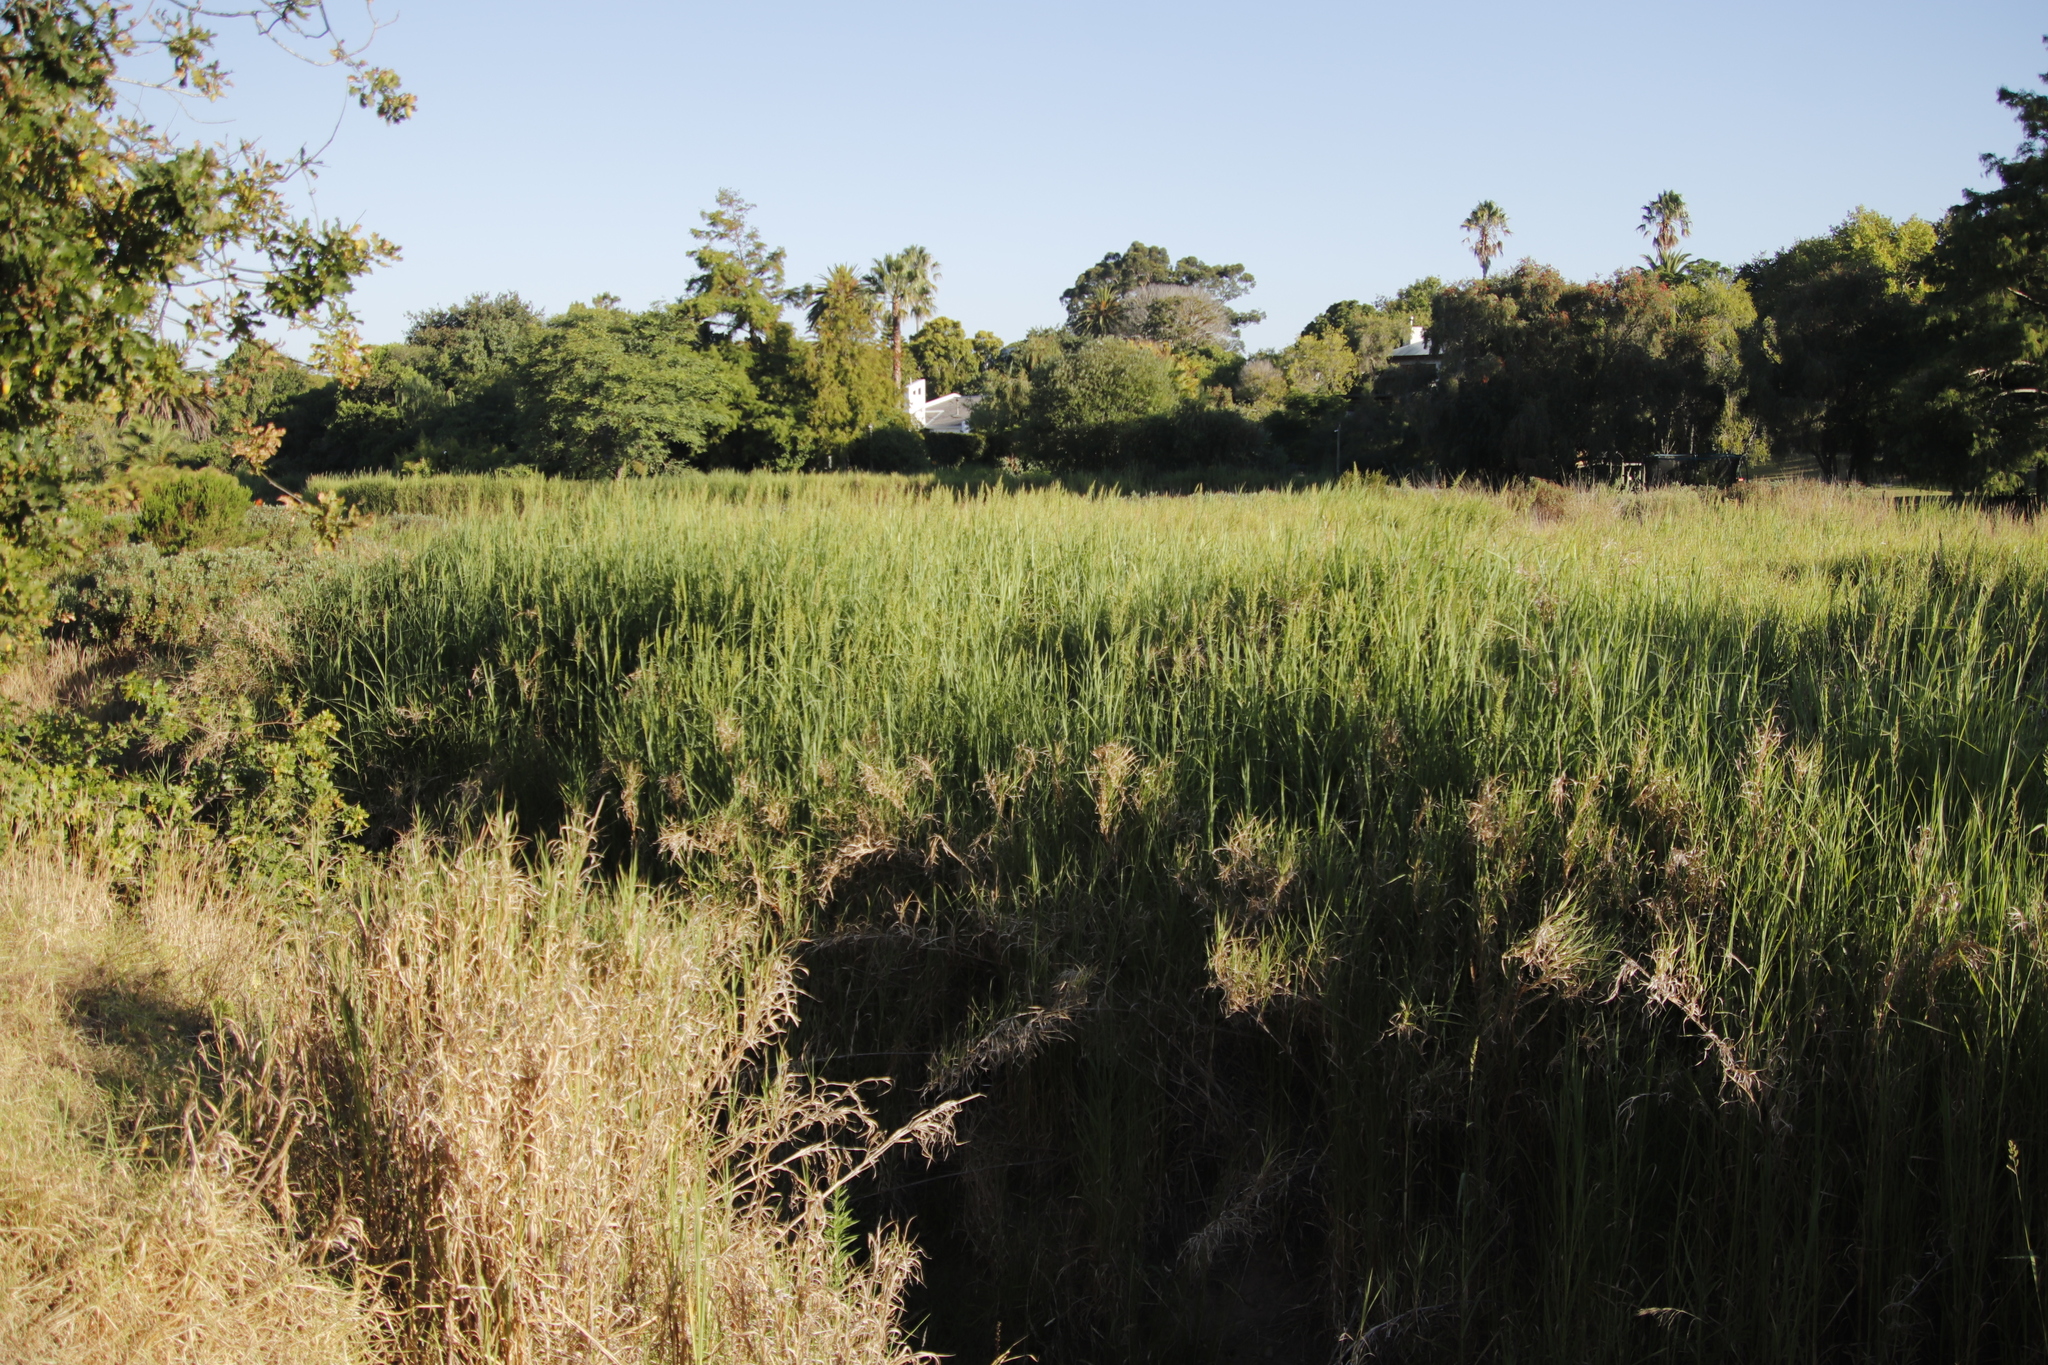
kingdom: Plantae
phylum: Tracheophyta
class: Liliopsida
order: Poales
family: Poaceae
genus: Echinochloa
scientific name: Echinochloa pyramidalis
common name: Antelope grass
